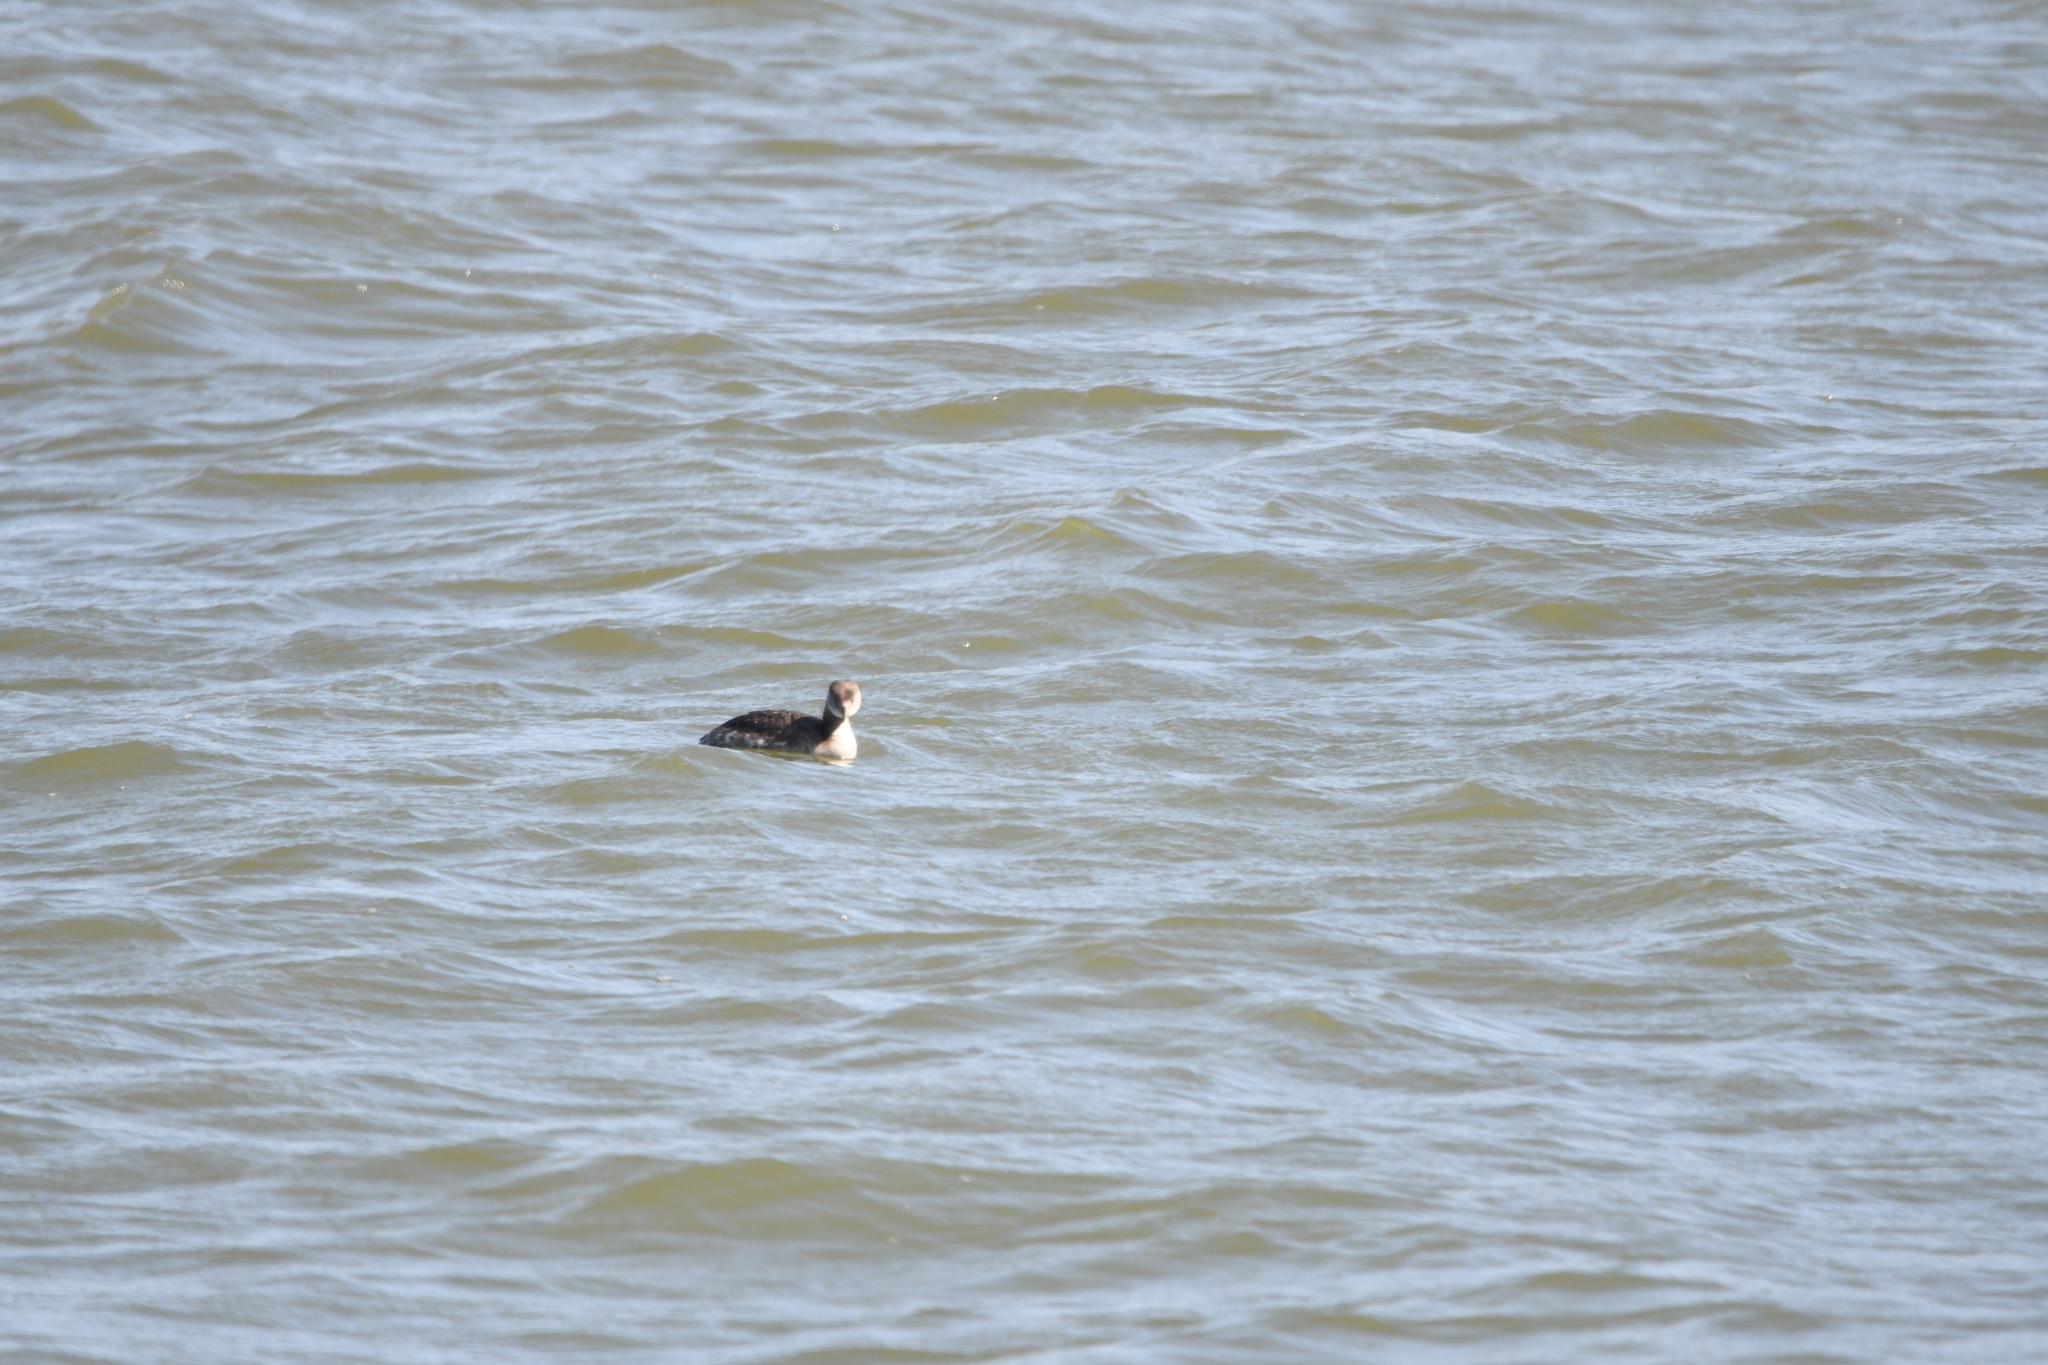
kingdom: Animalia
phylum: Chordata
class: Aves
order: Podicipediformes
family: Podicipedidae
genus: Podiceps
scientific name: Podiceps grisegena
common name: Red-necked grebe
